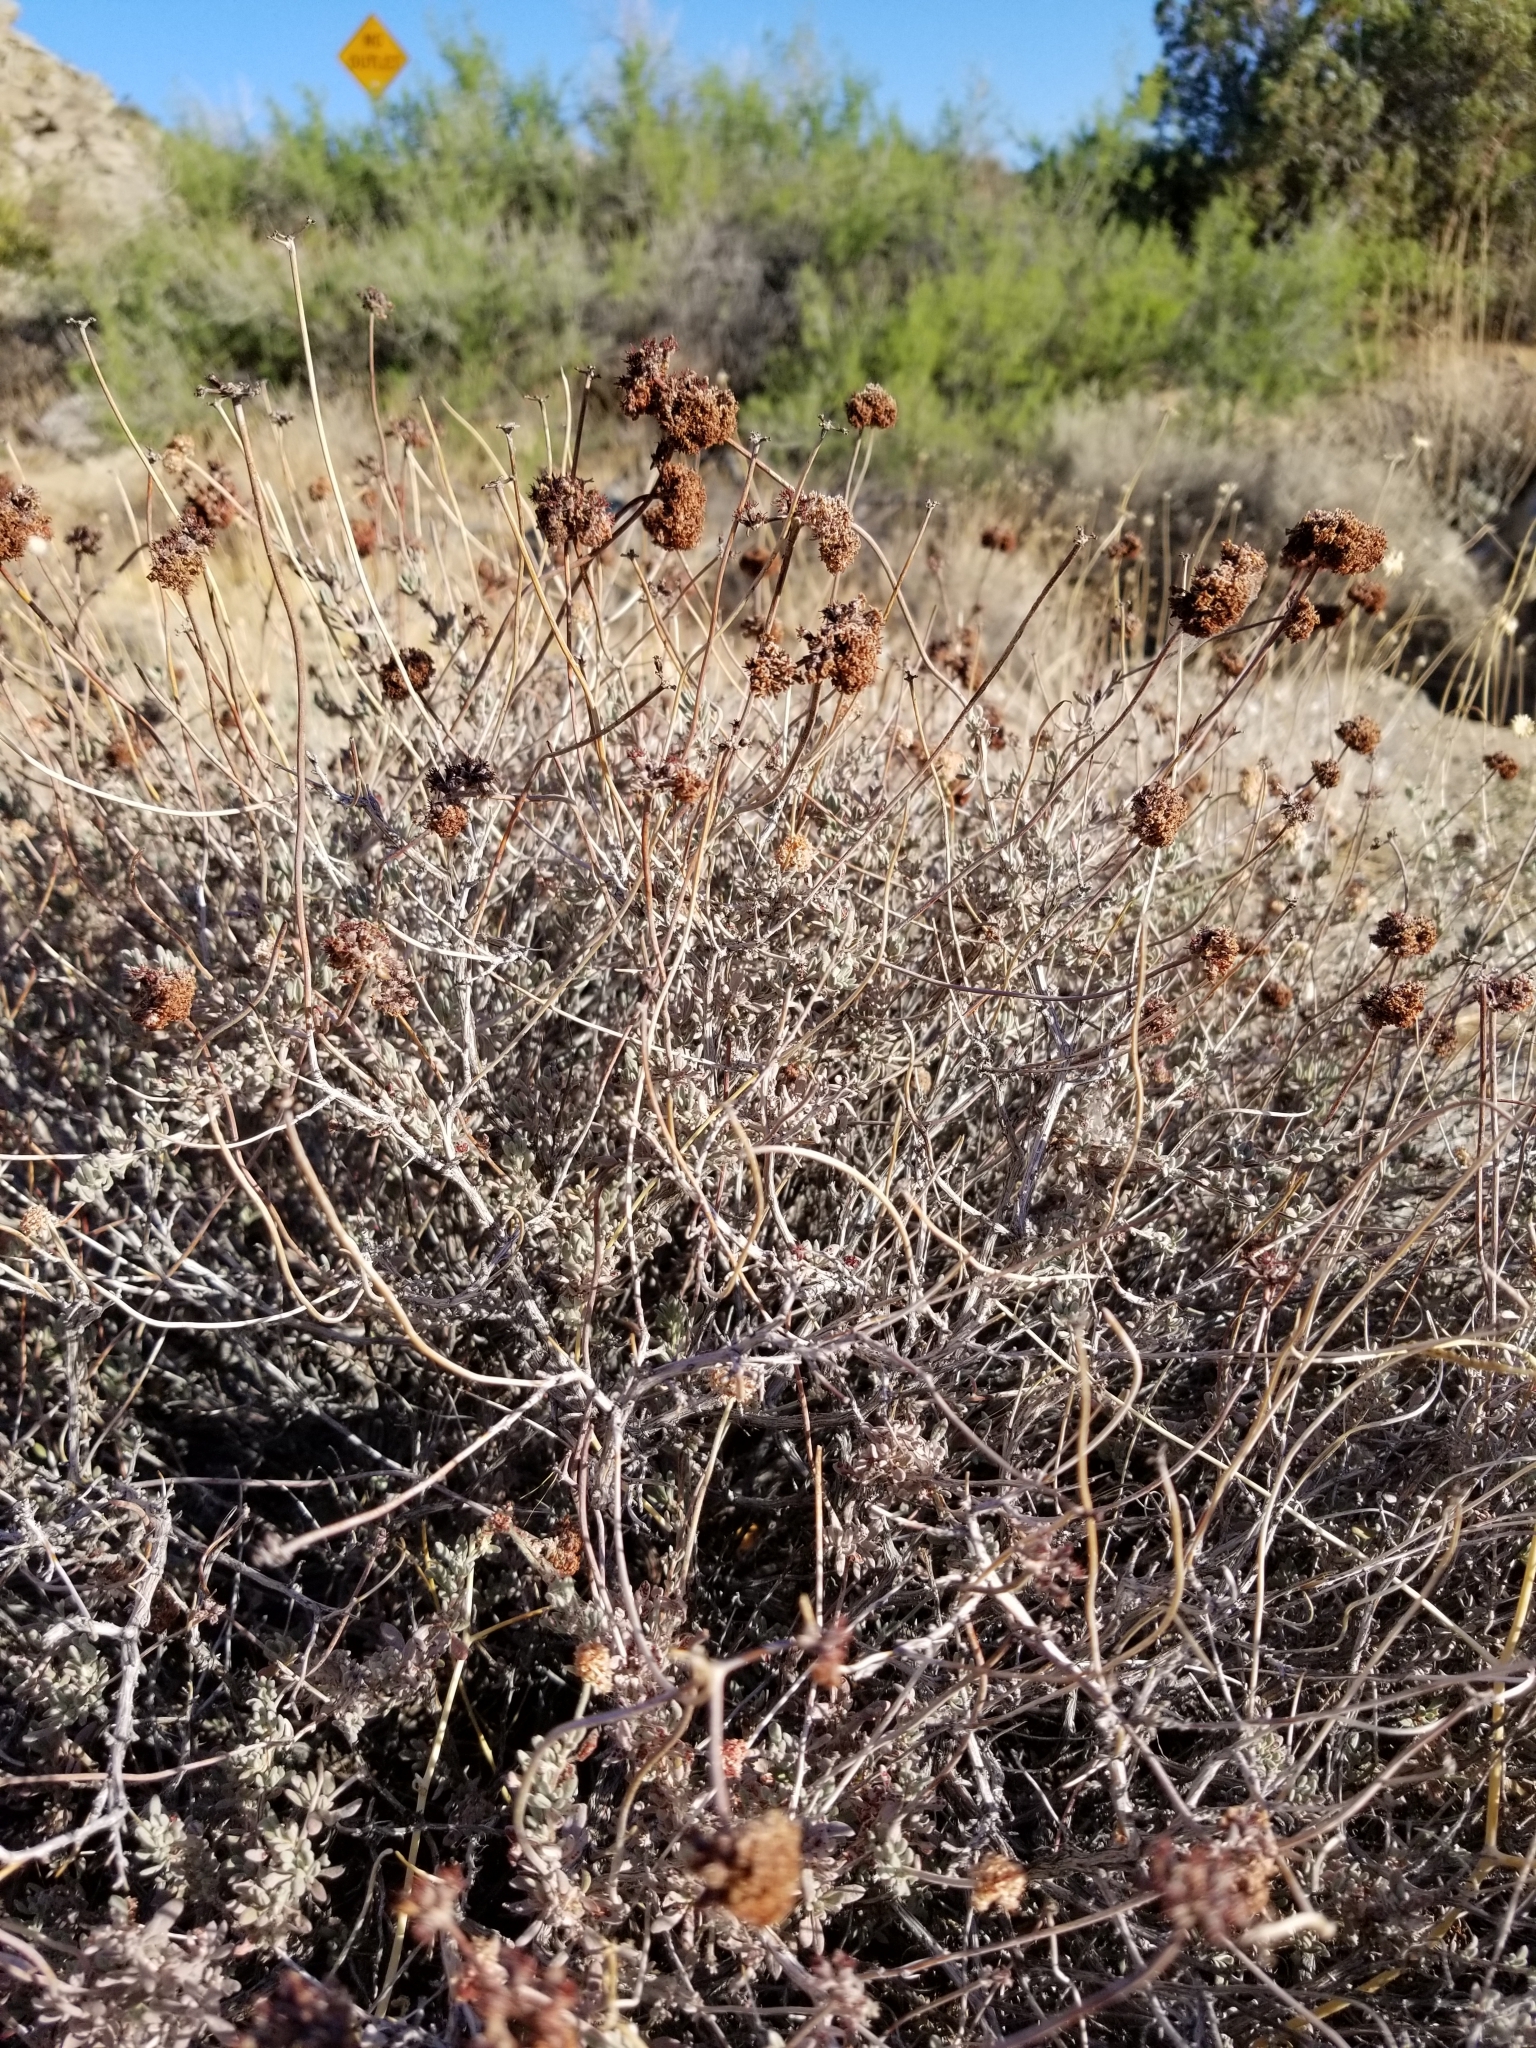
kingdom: Plantae
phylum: Tracheophyta
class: Magnoliopsida
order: Caryophyllales
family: Polygonaceae
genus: Eriogonum
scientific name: Eriogonum fasciculatum
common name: California wild buckwheat
